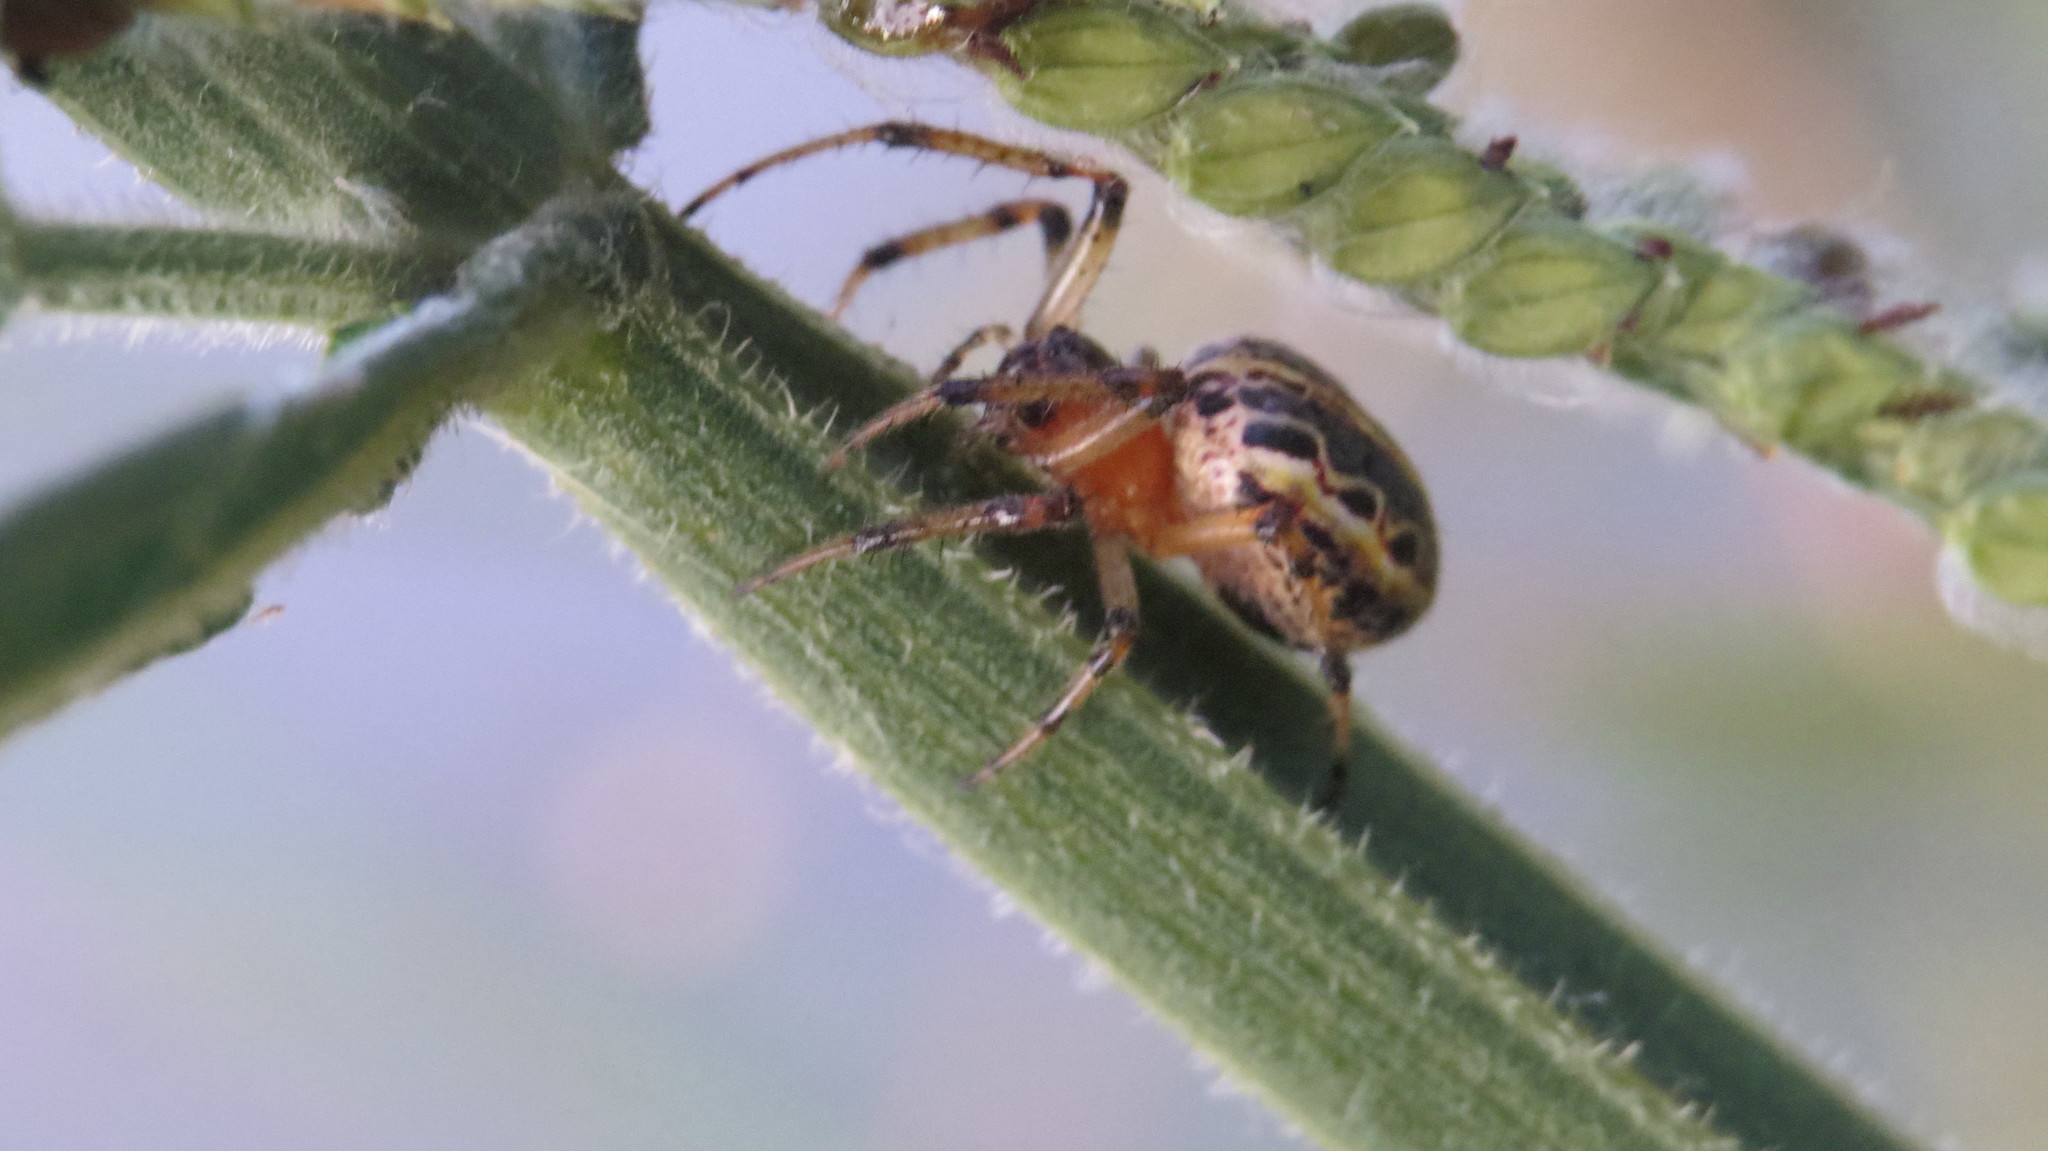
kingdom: Animalia
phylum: Arthropoda
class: Arachnida
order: Araneae
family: Araneidae
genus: Alpaida
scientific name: Alpaida veniliae
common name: Orb weavers
